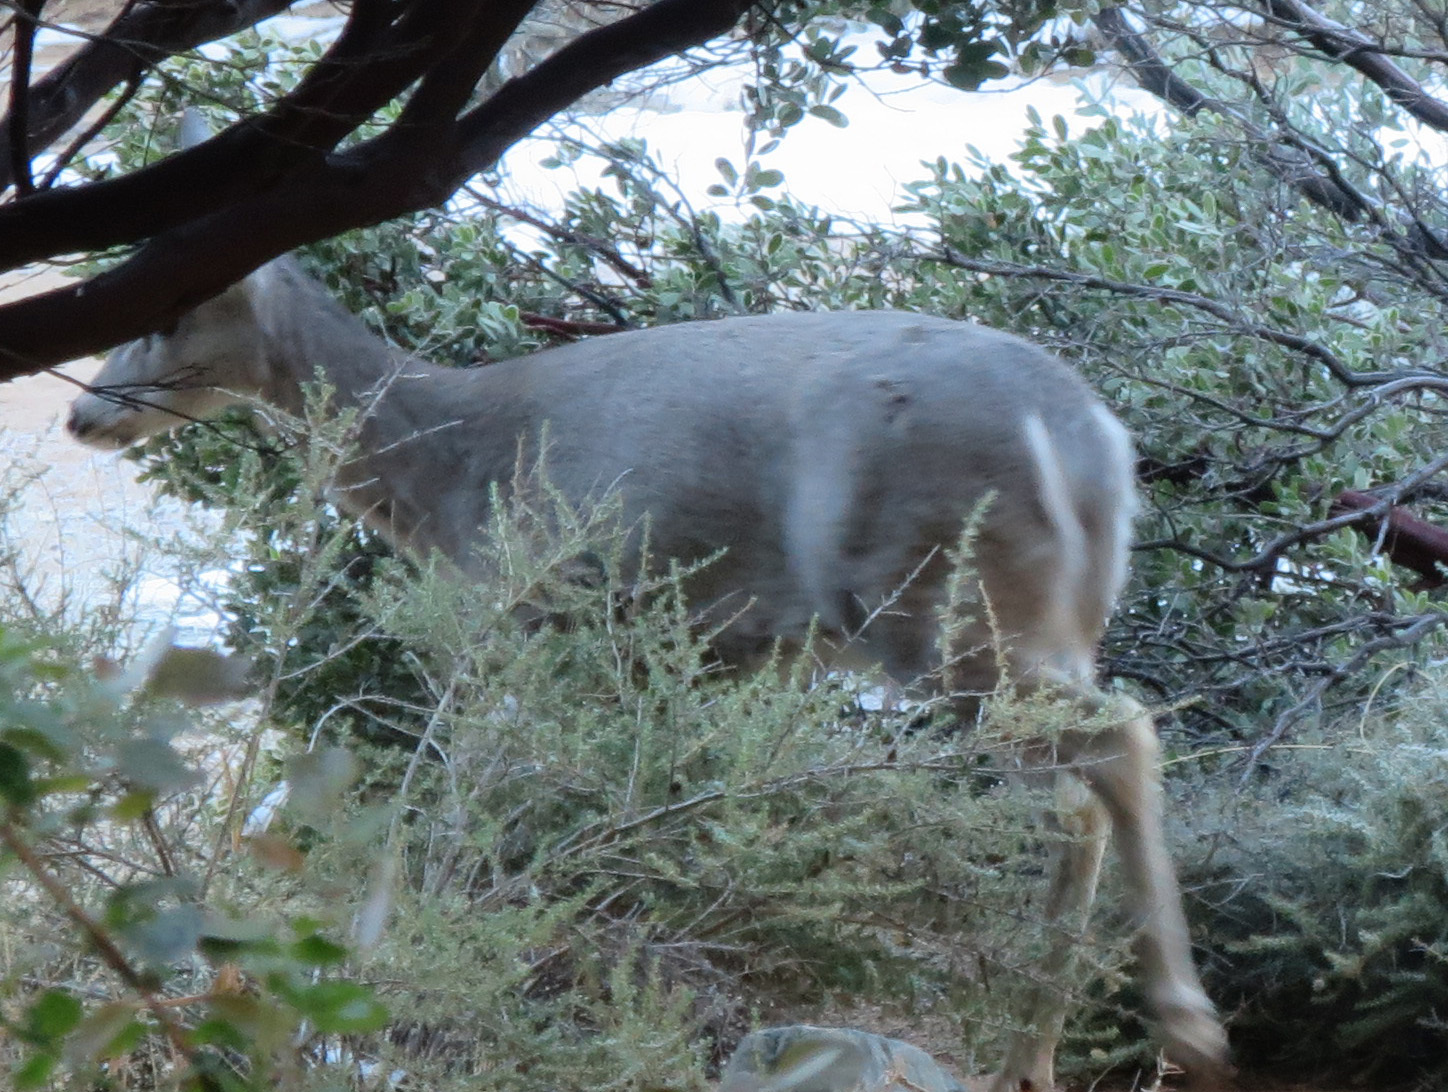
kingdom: Animalia
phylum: Chordata
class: Mammalia
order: Artiodactyla
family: Cervidae
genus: Odocoileus
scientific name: Odocoileus virginianus
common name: White-tailed deer
